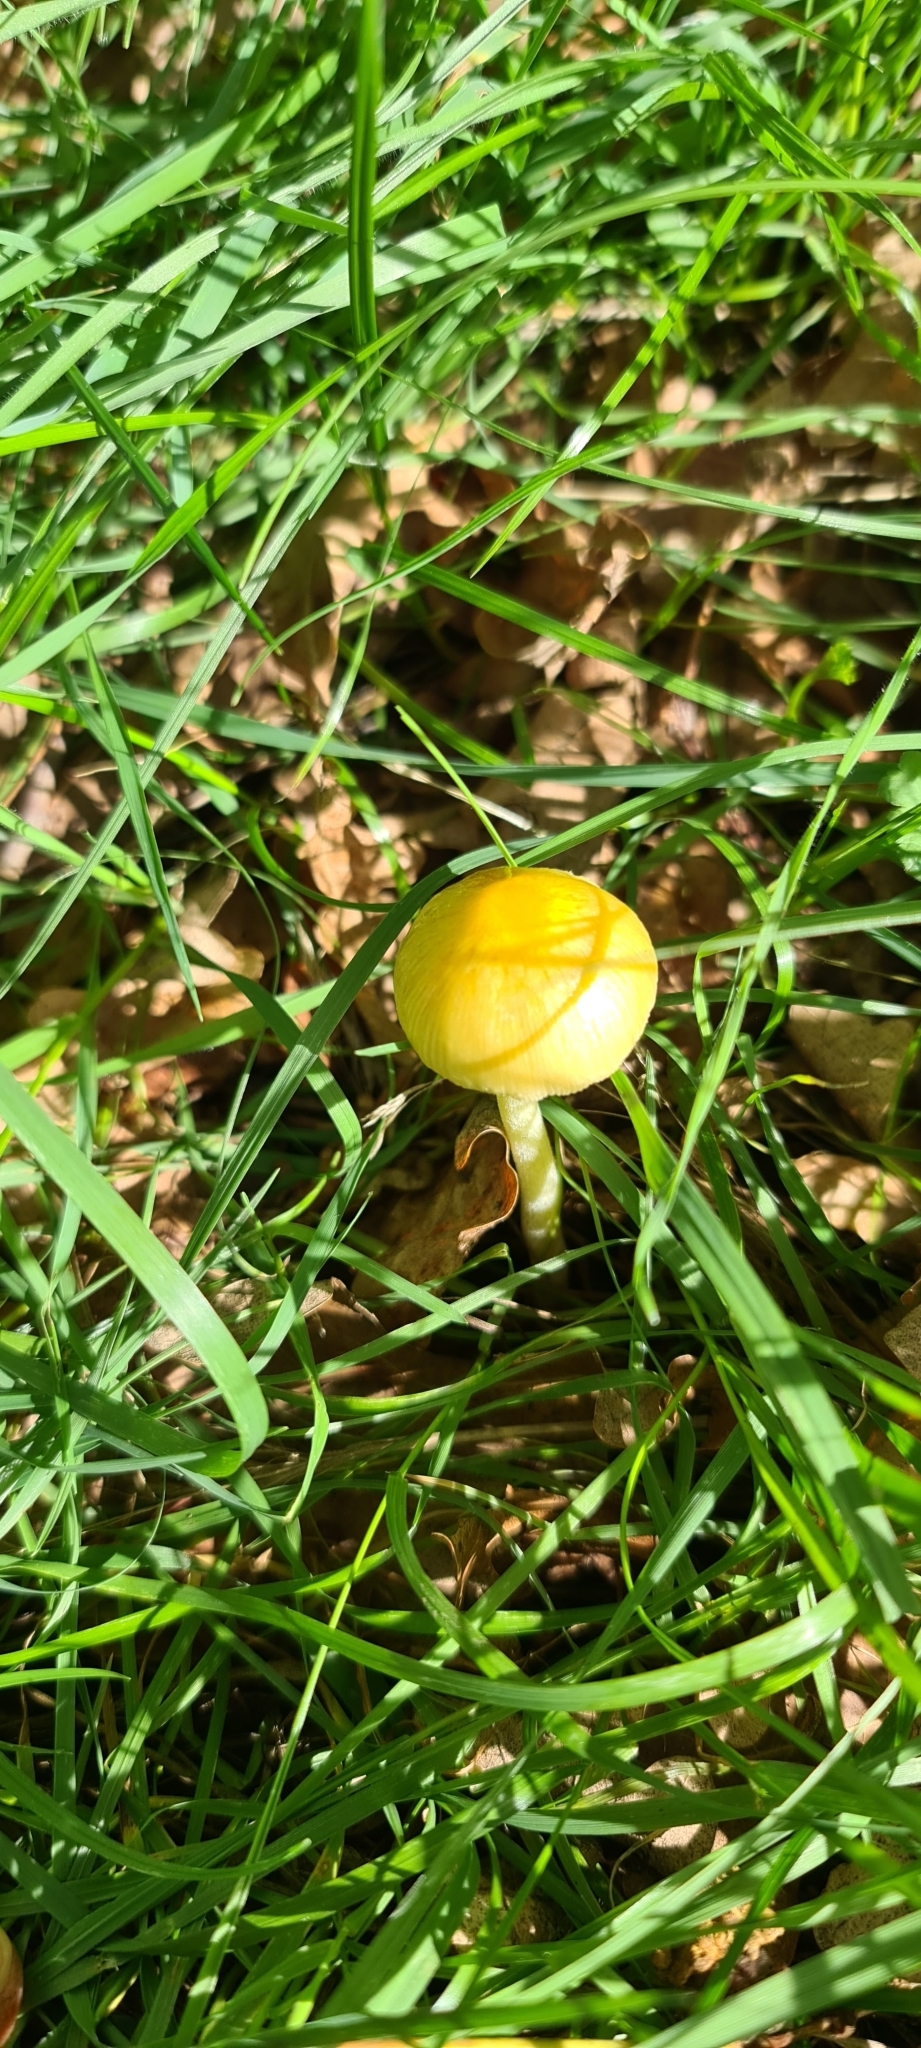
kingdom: Fungi
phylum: Basidiomycota
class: Agaricomycetes
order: Agaricales
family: Bolbitiaceae
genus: Bolbitius
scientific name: Bolbitius titubans
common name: Yellow fieldcap
